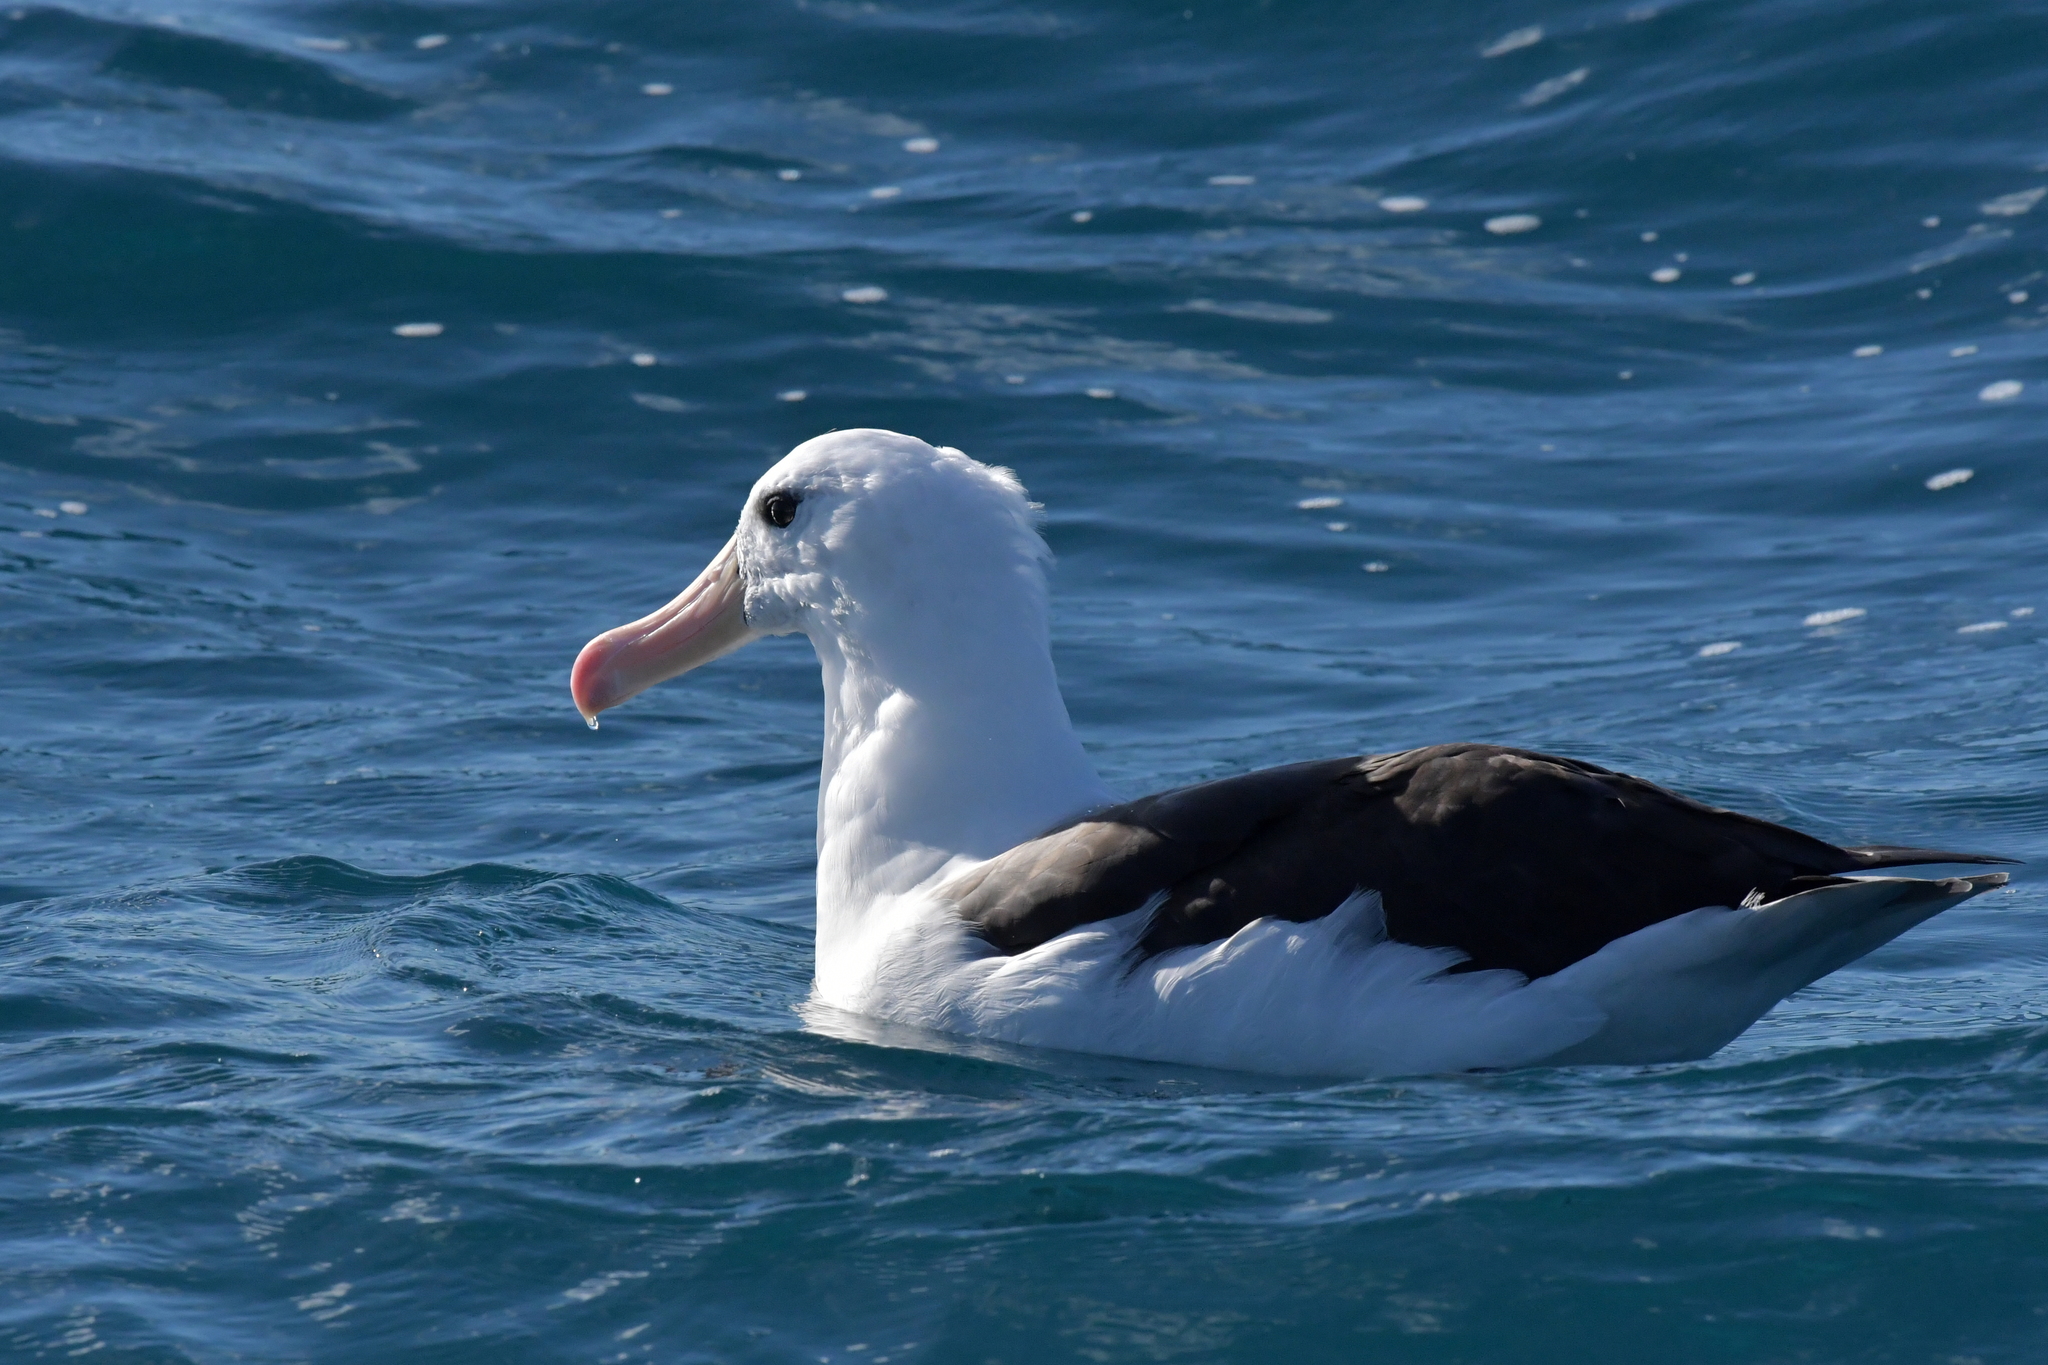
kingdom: Animalia
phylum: Chordata
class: Aves
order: Procellariiformes
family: Diomedeidae
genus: Thalassarche
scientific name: Thalassarche melanophris
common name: Black-browed albatross
